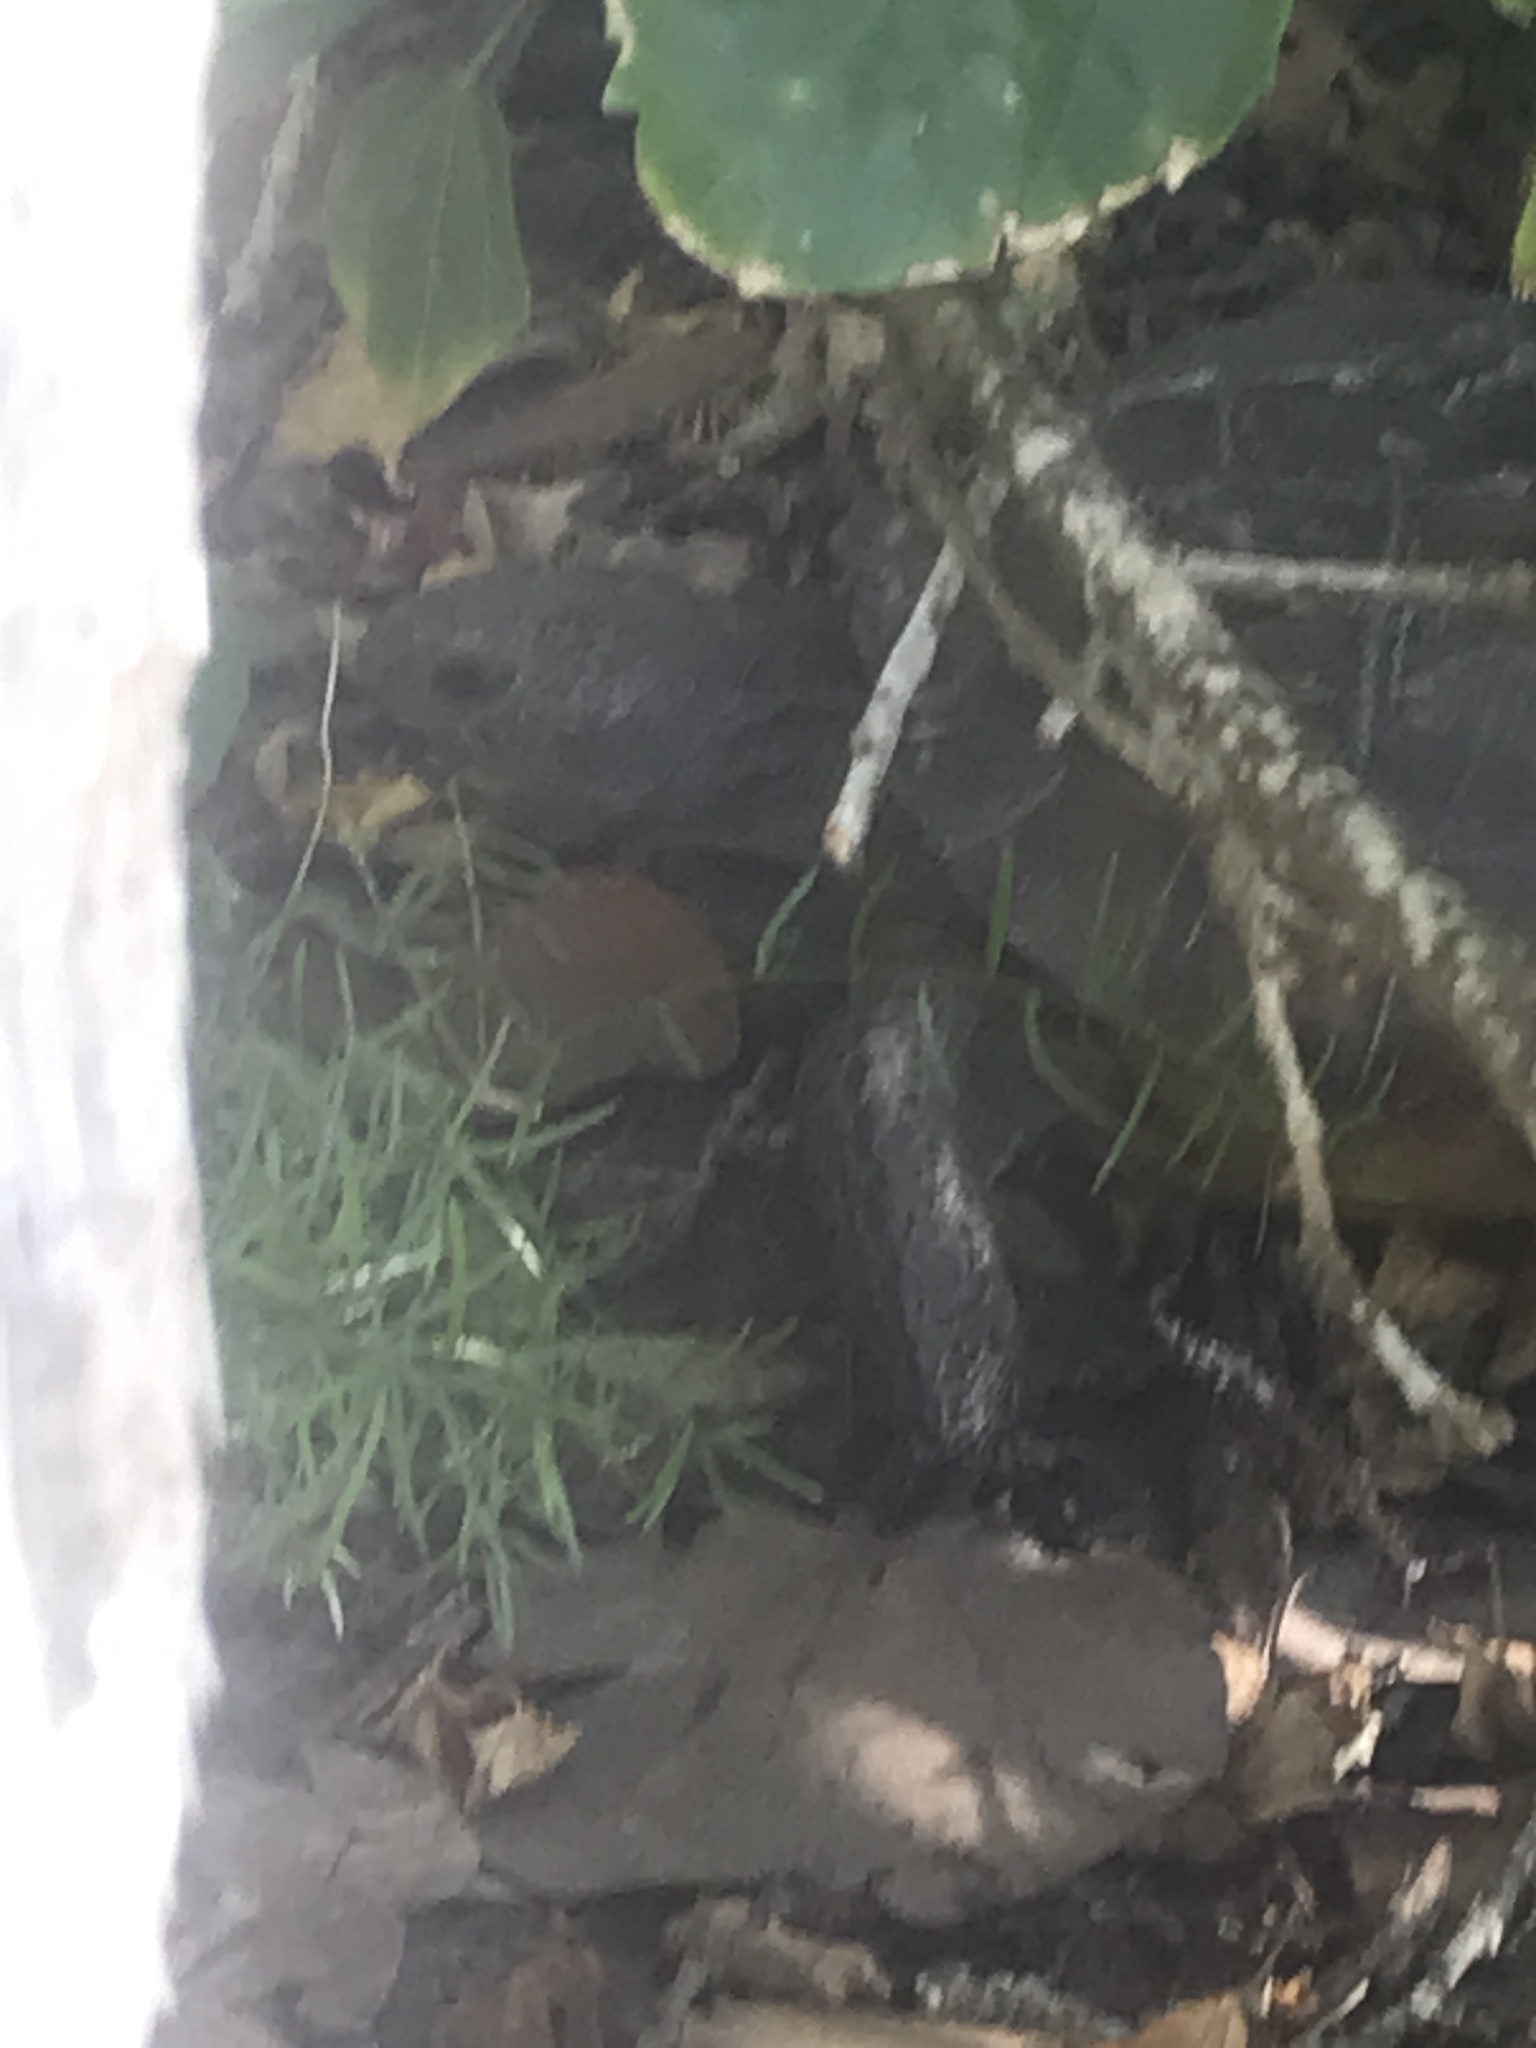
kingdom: Animalia
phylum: Chordata
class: Testudines
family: Testudinidae
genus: Gopherus
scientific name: Gopherus polyphemus
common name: Florida gopher tortoise
